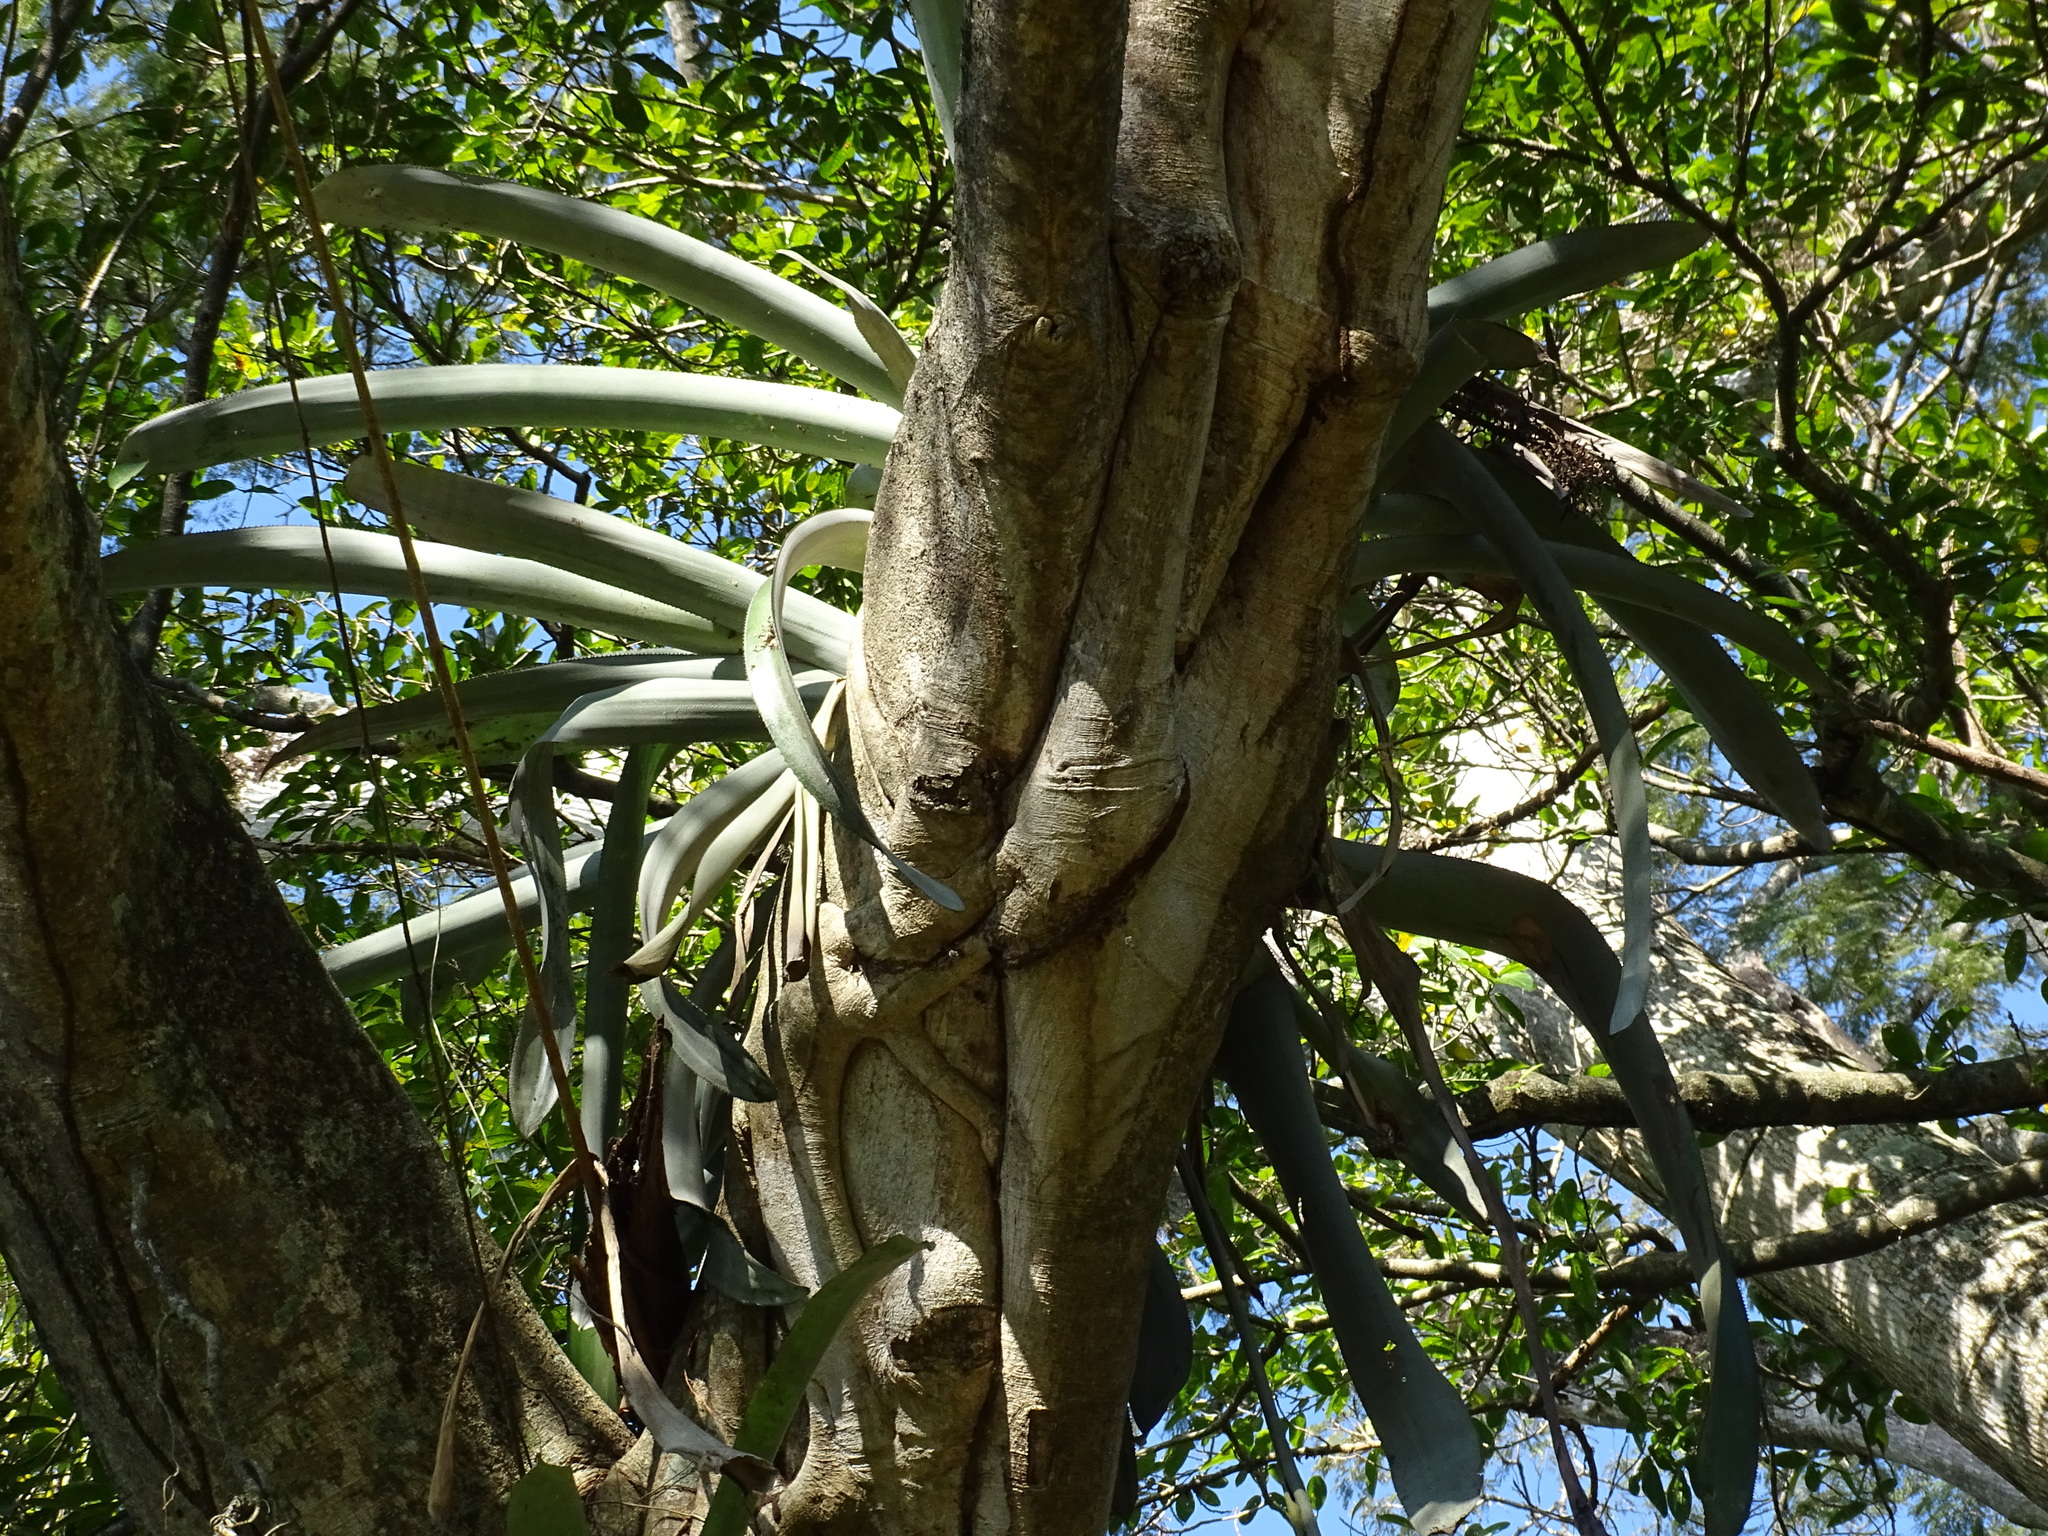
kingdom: Plantae
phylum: Tracheophyta
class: Liliopsida
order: Poales
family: Bromeliaceae
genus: Aechmea
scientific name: Aechmea matudae
